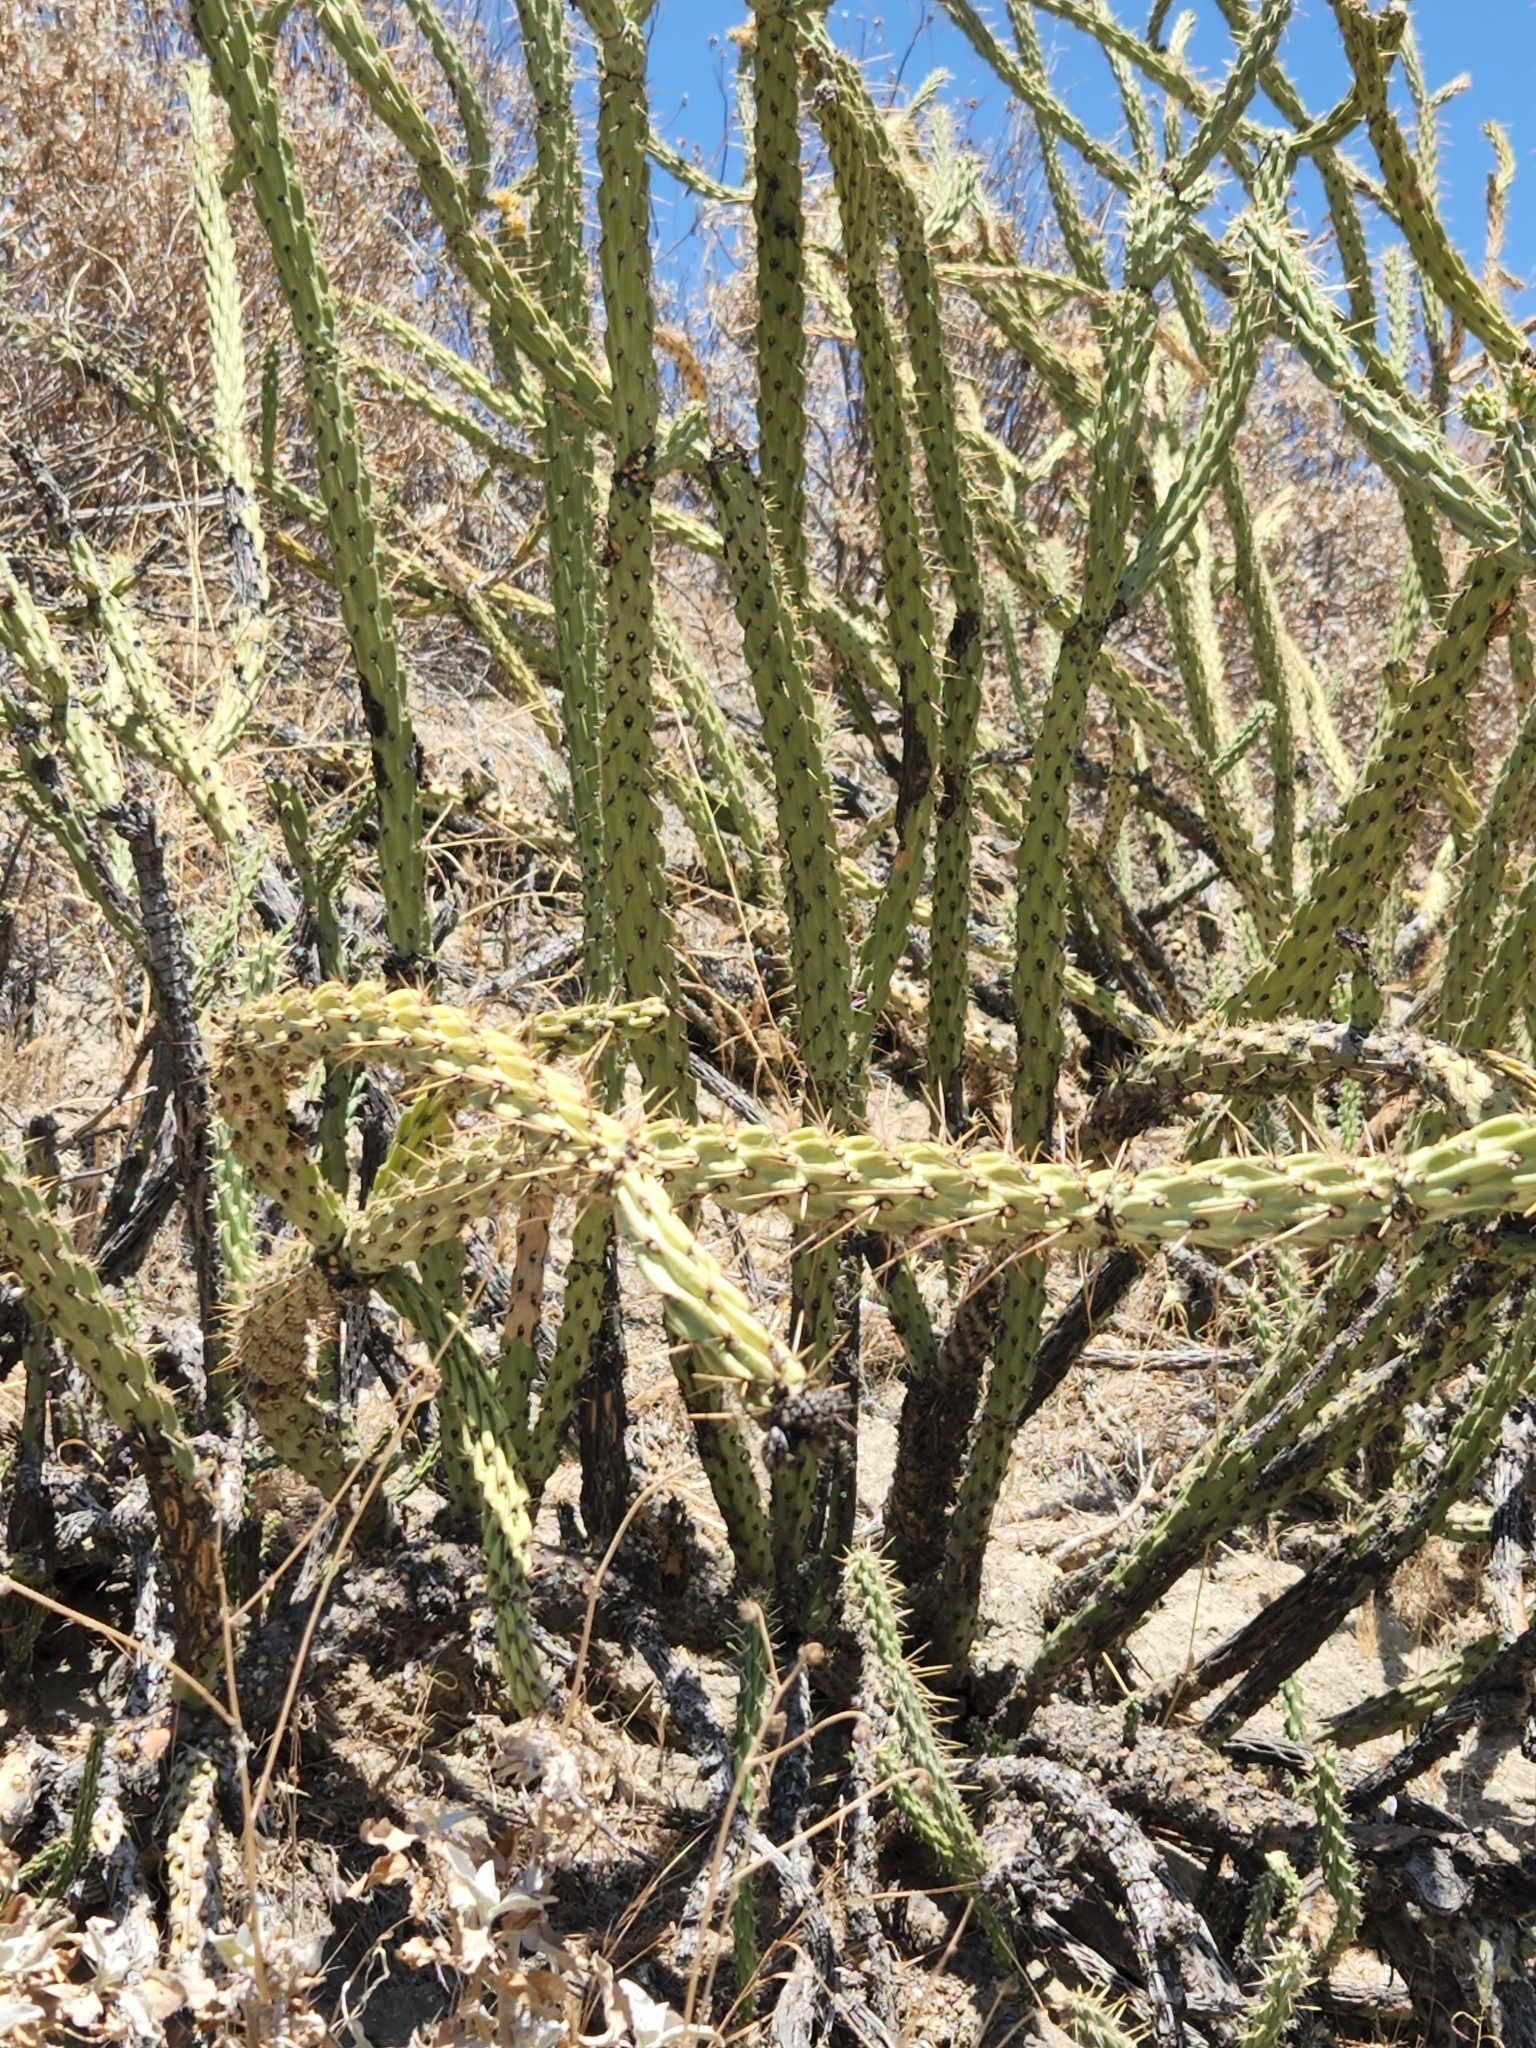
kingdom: Plantae
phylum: Tracheophyta
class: Magnoliopsida
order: Caryophyllales
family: Cactaceae
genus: Cylindropuntia
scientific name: Cylindropuntia bernardina
